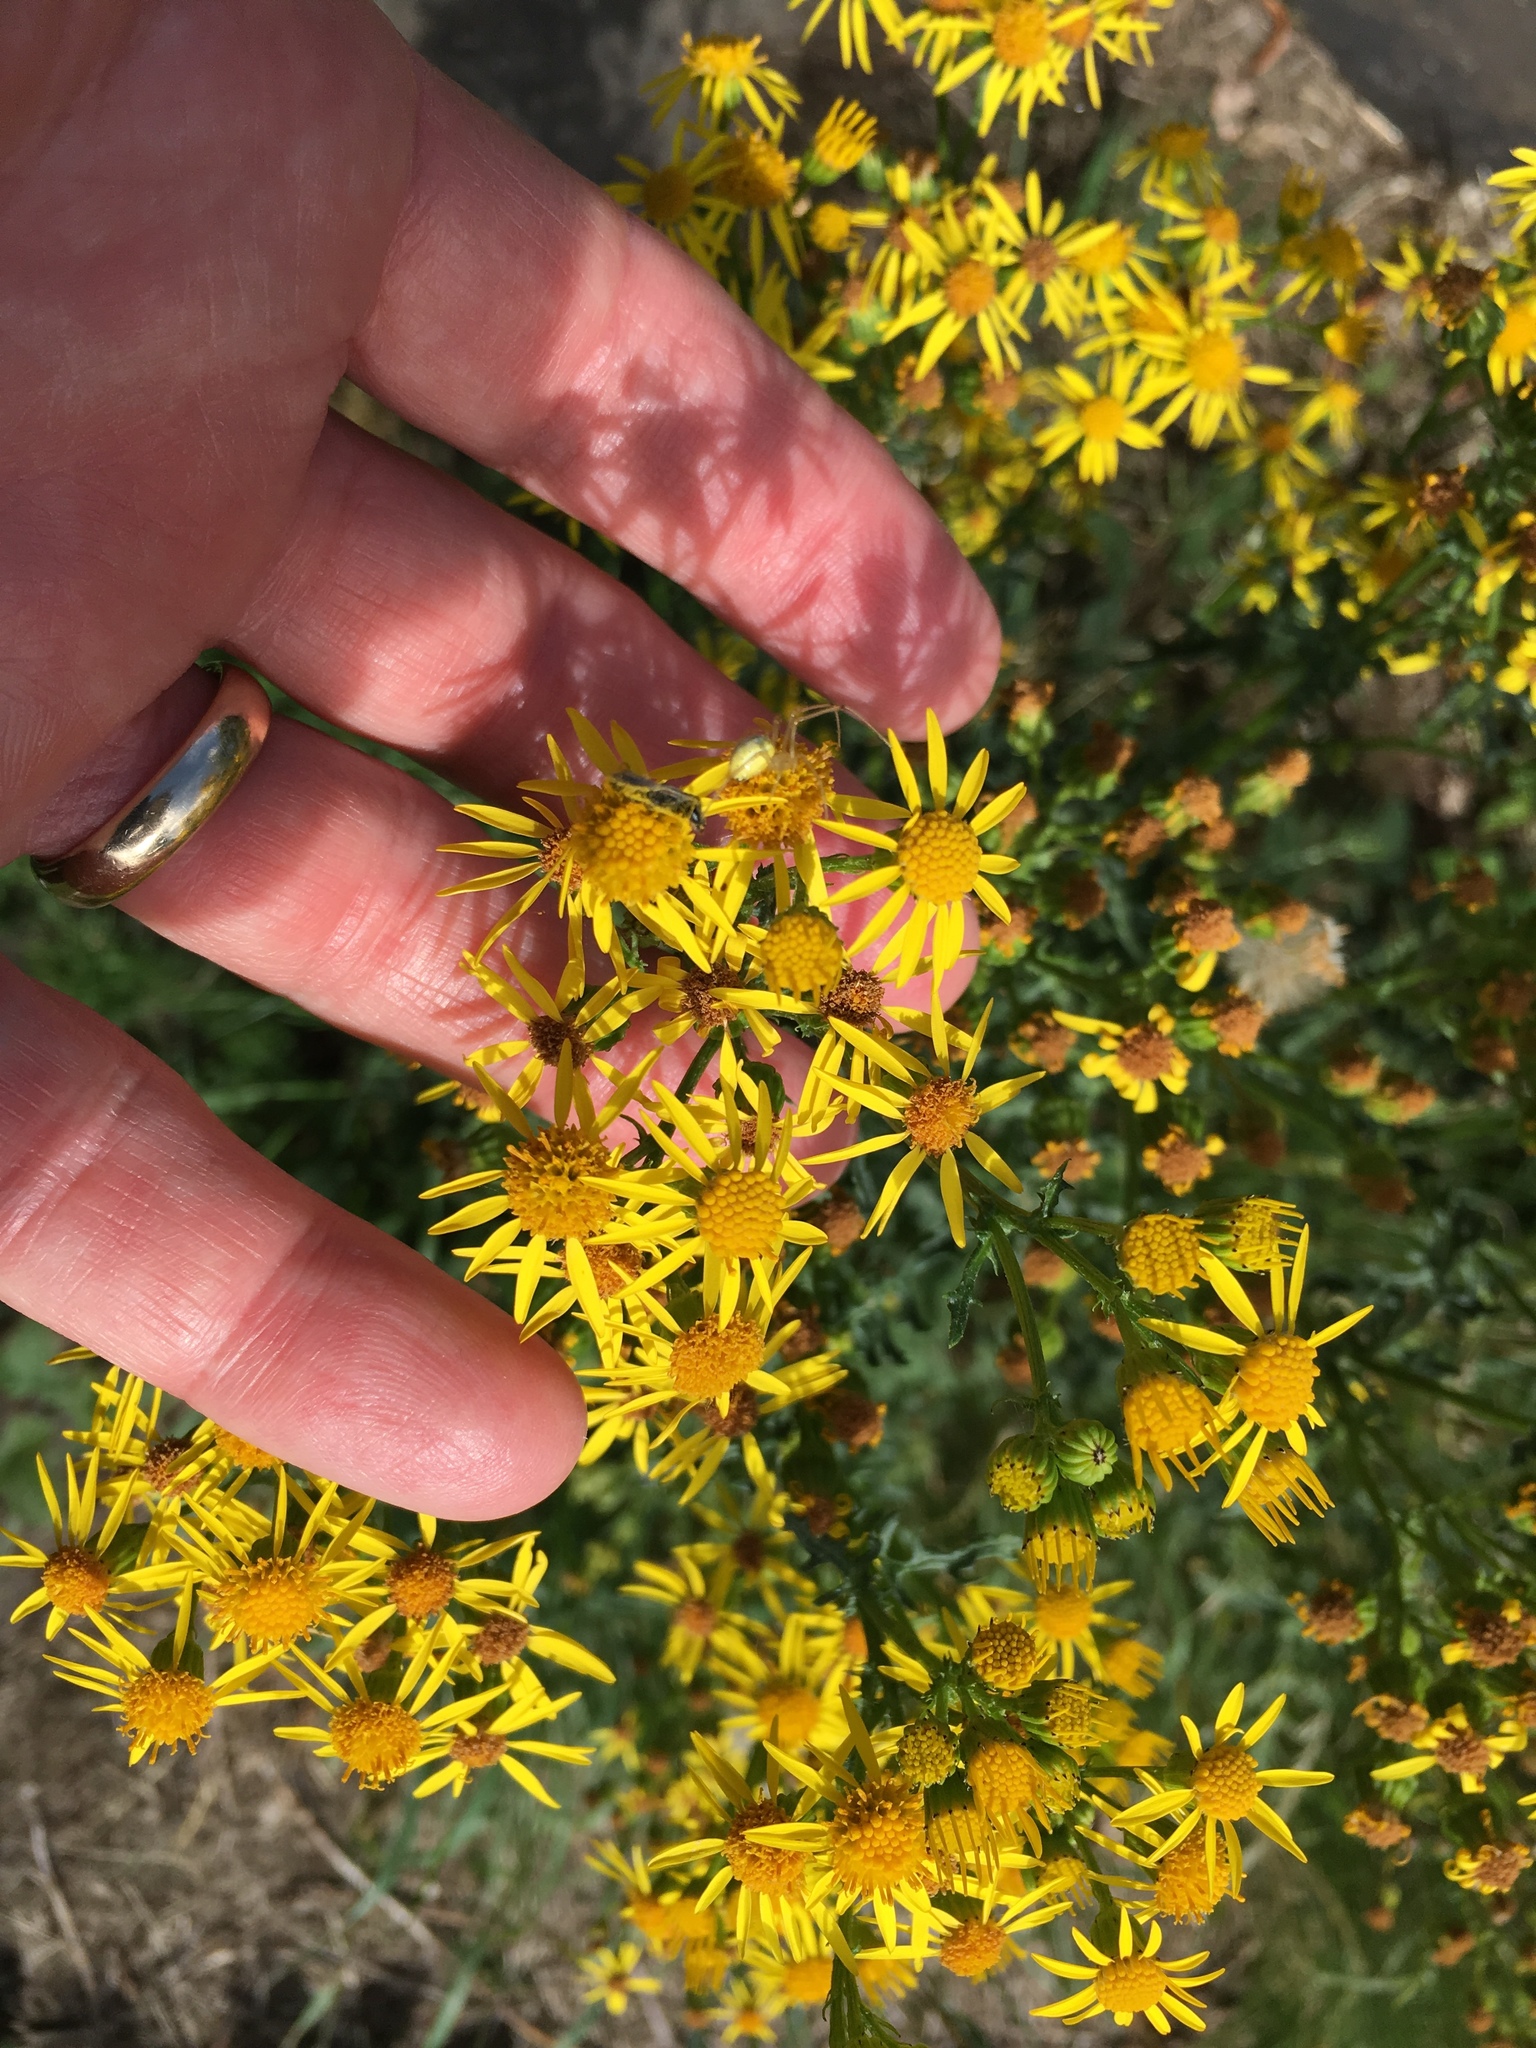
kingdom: Plantae
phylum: Tracheophyta
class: Magnoliopsida
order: Asterales
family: Asteraceae
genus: Jacobaea
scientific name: Jacobaea vulgaris
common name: Stinking willie
